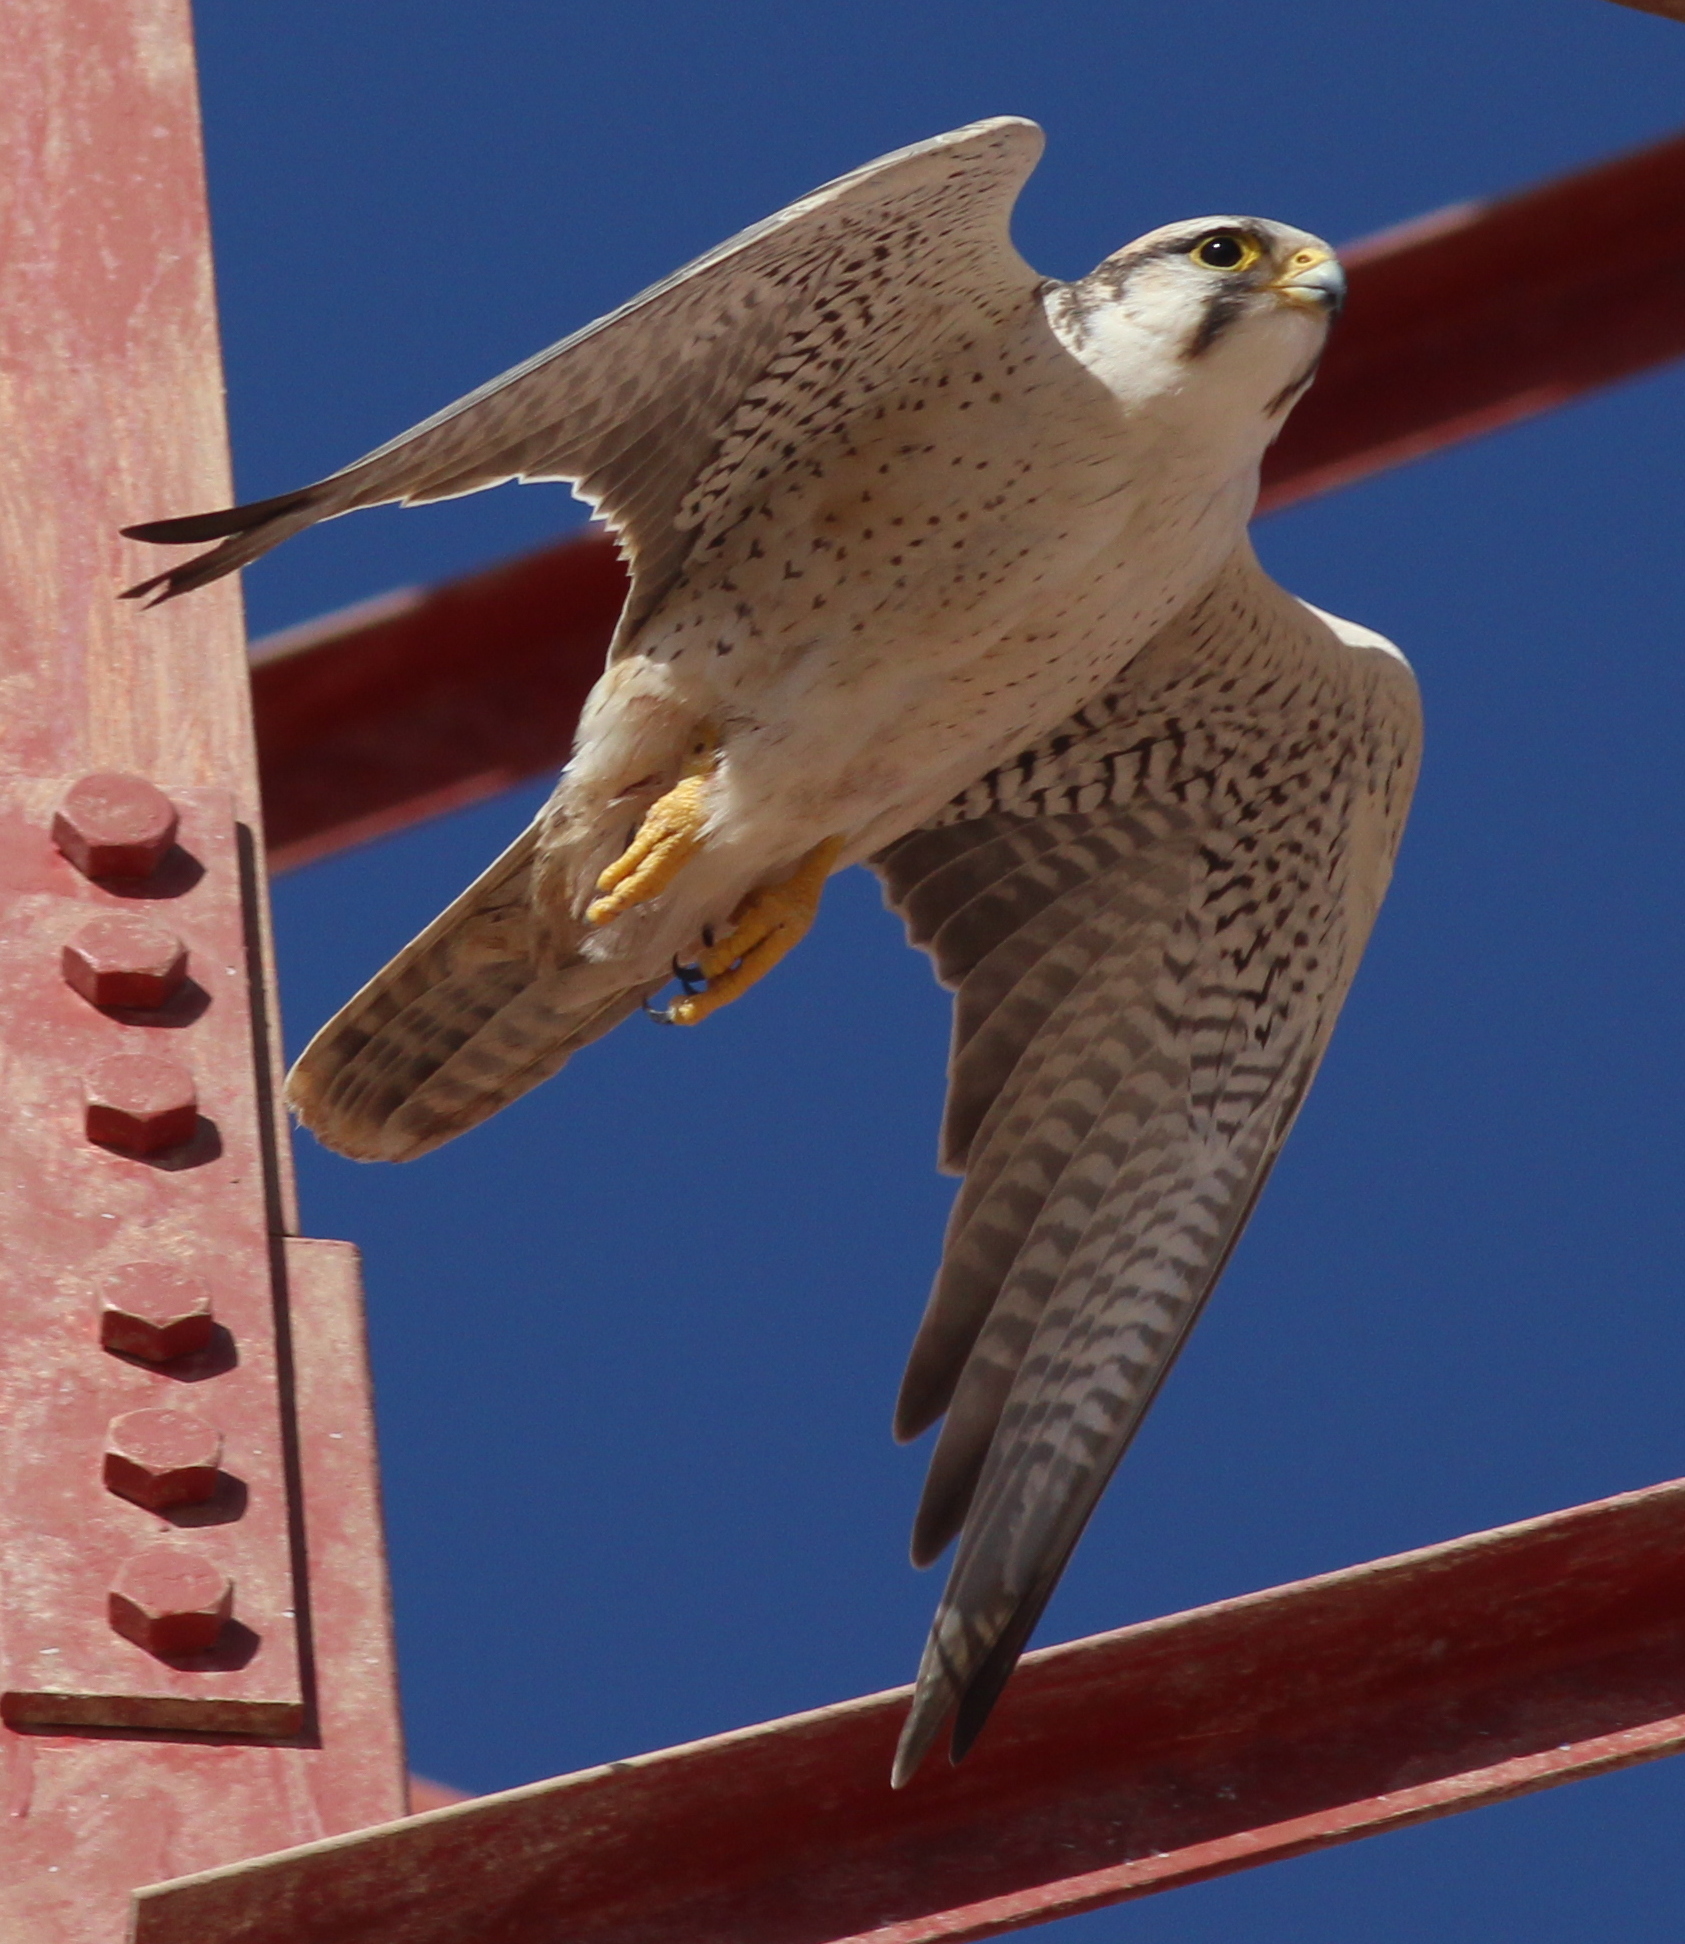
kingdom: Animalia
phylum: Chordata
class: Aves
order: Falconiformes
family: Falconidae
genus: Falco
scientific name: Falco biarmicus
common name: Lanner falcon
